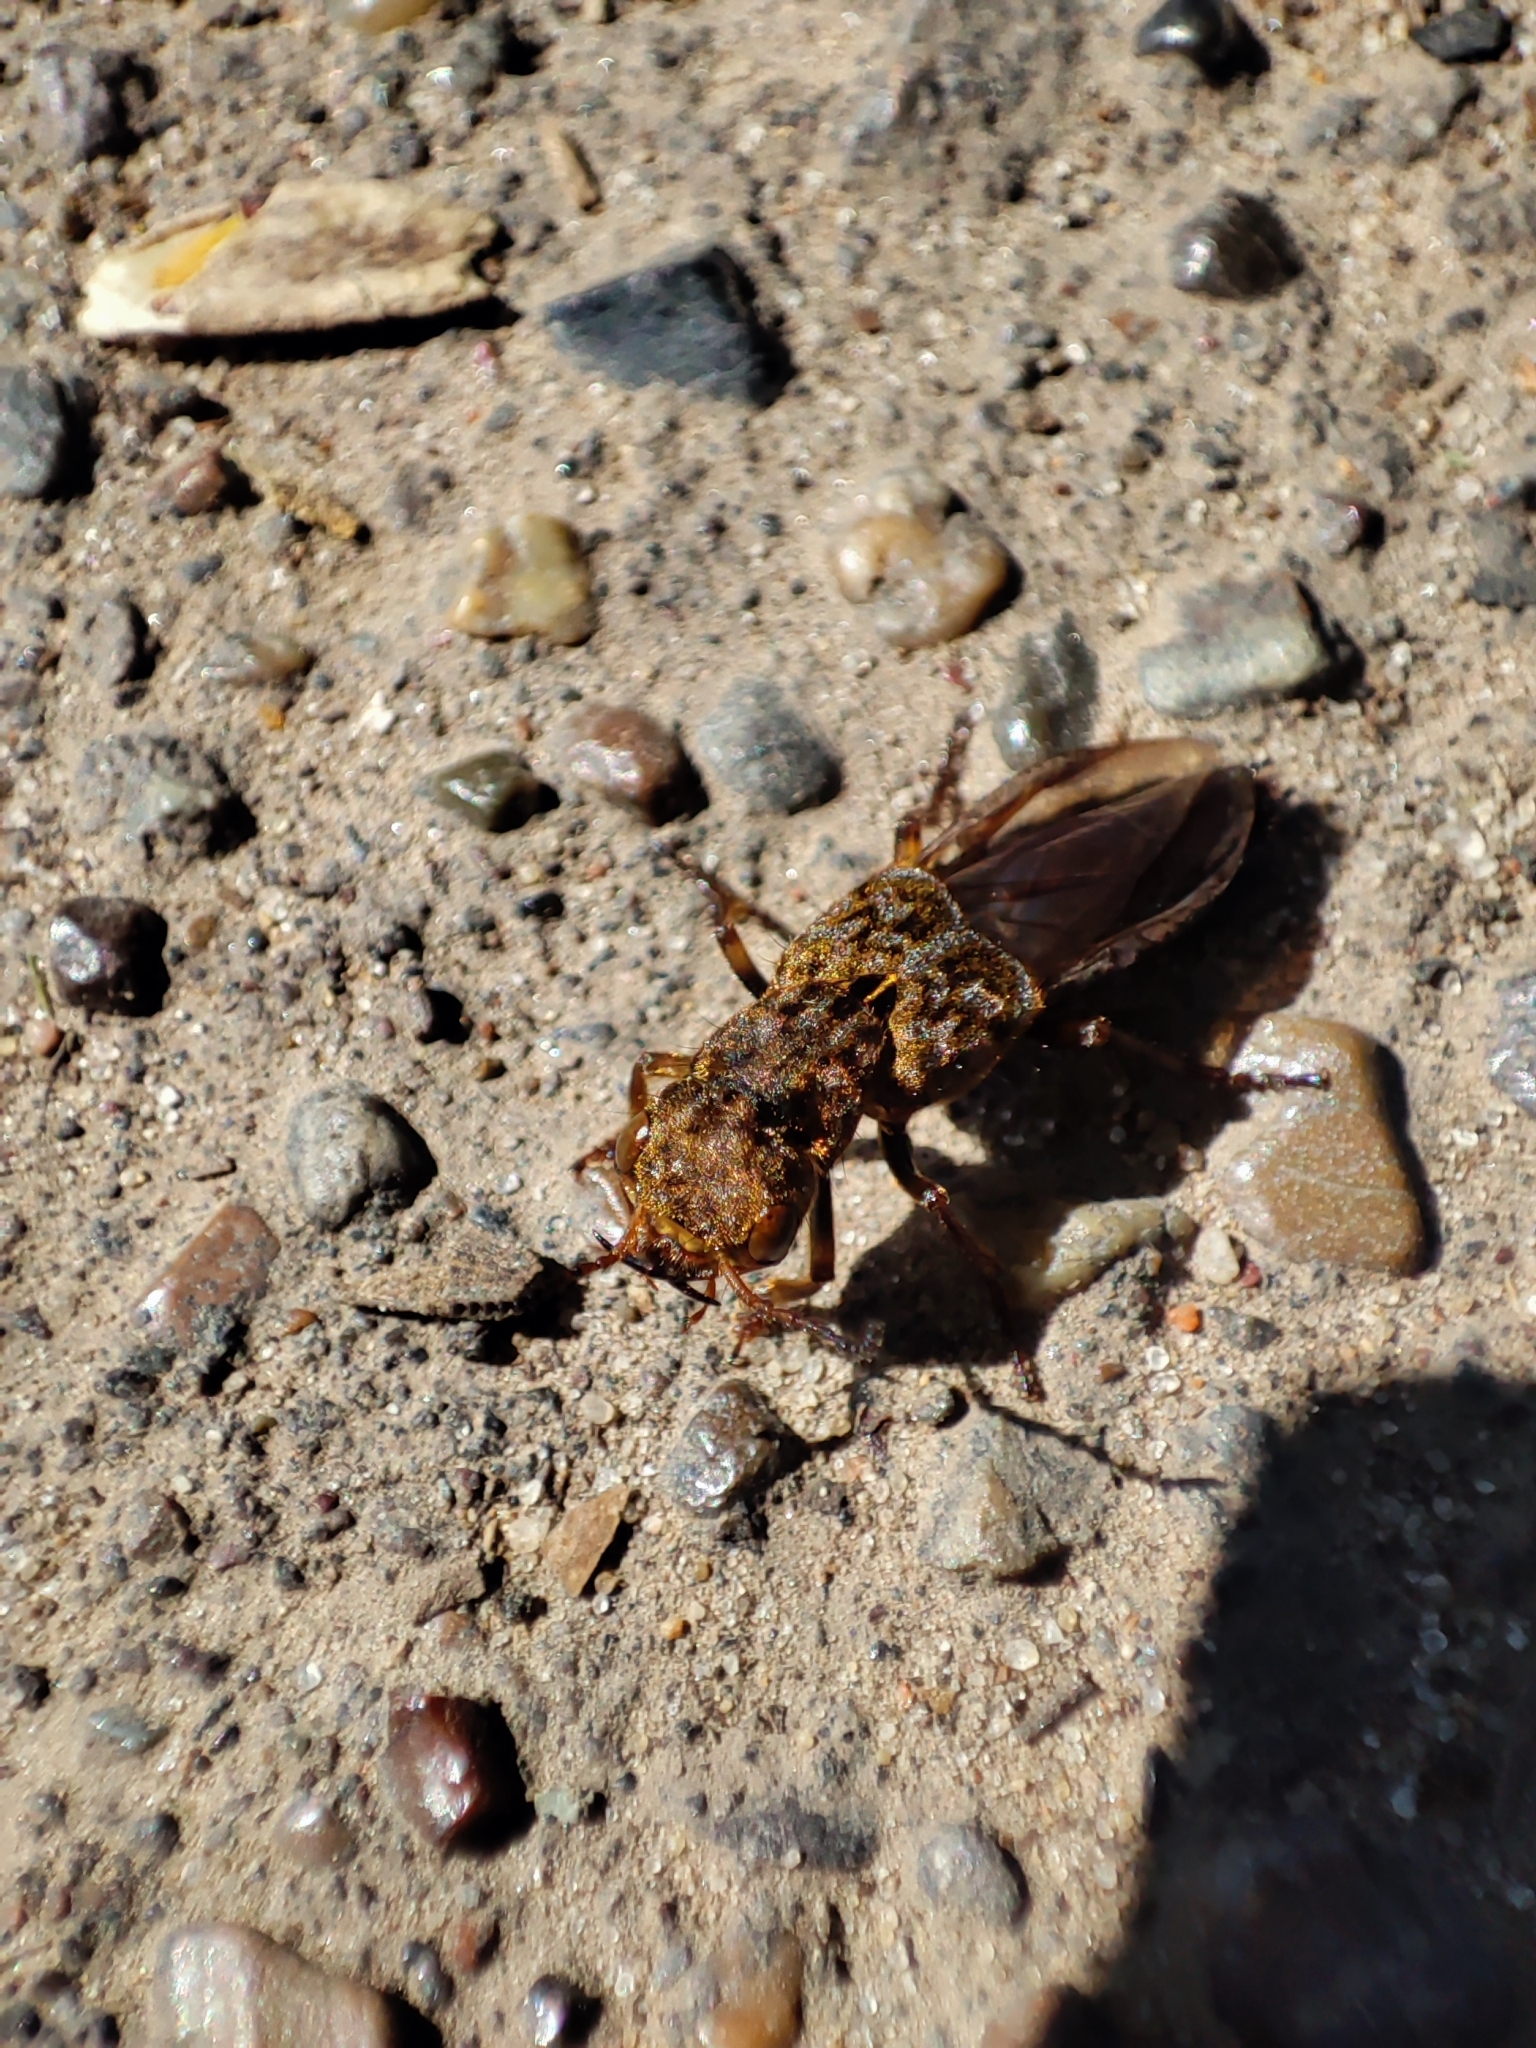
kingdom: Animalia
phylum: Arthropoda
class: Insecta
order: Coleoptera
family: Staphylinidae
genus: Ontholestes
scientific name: Ontholestes tessellatus
